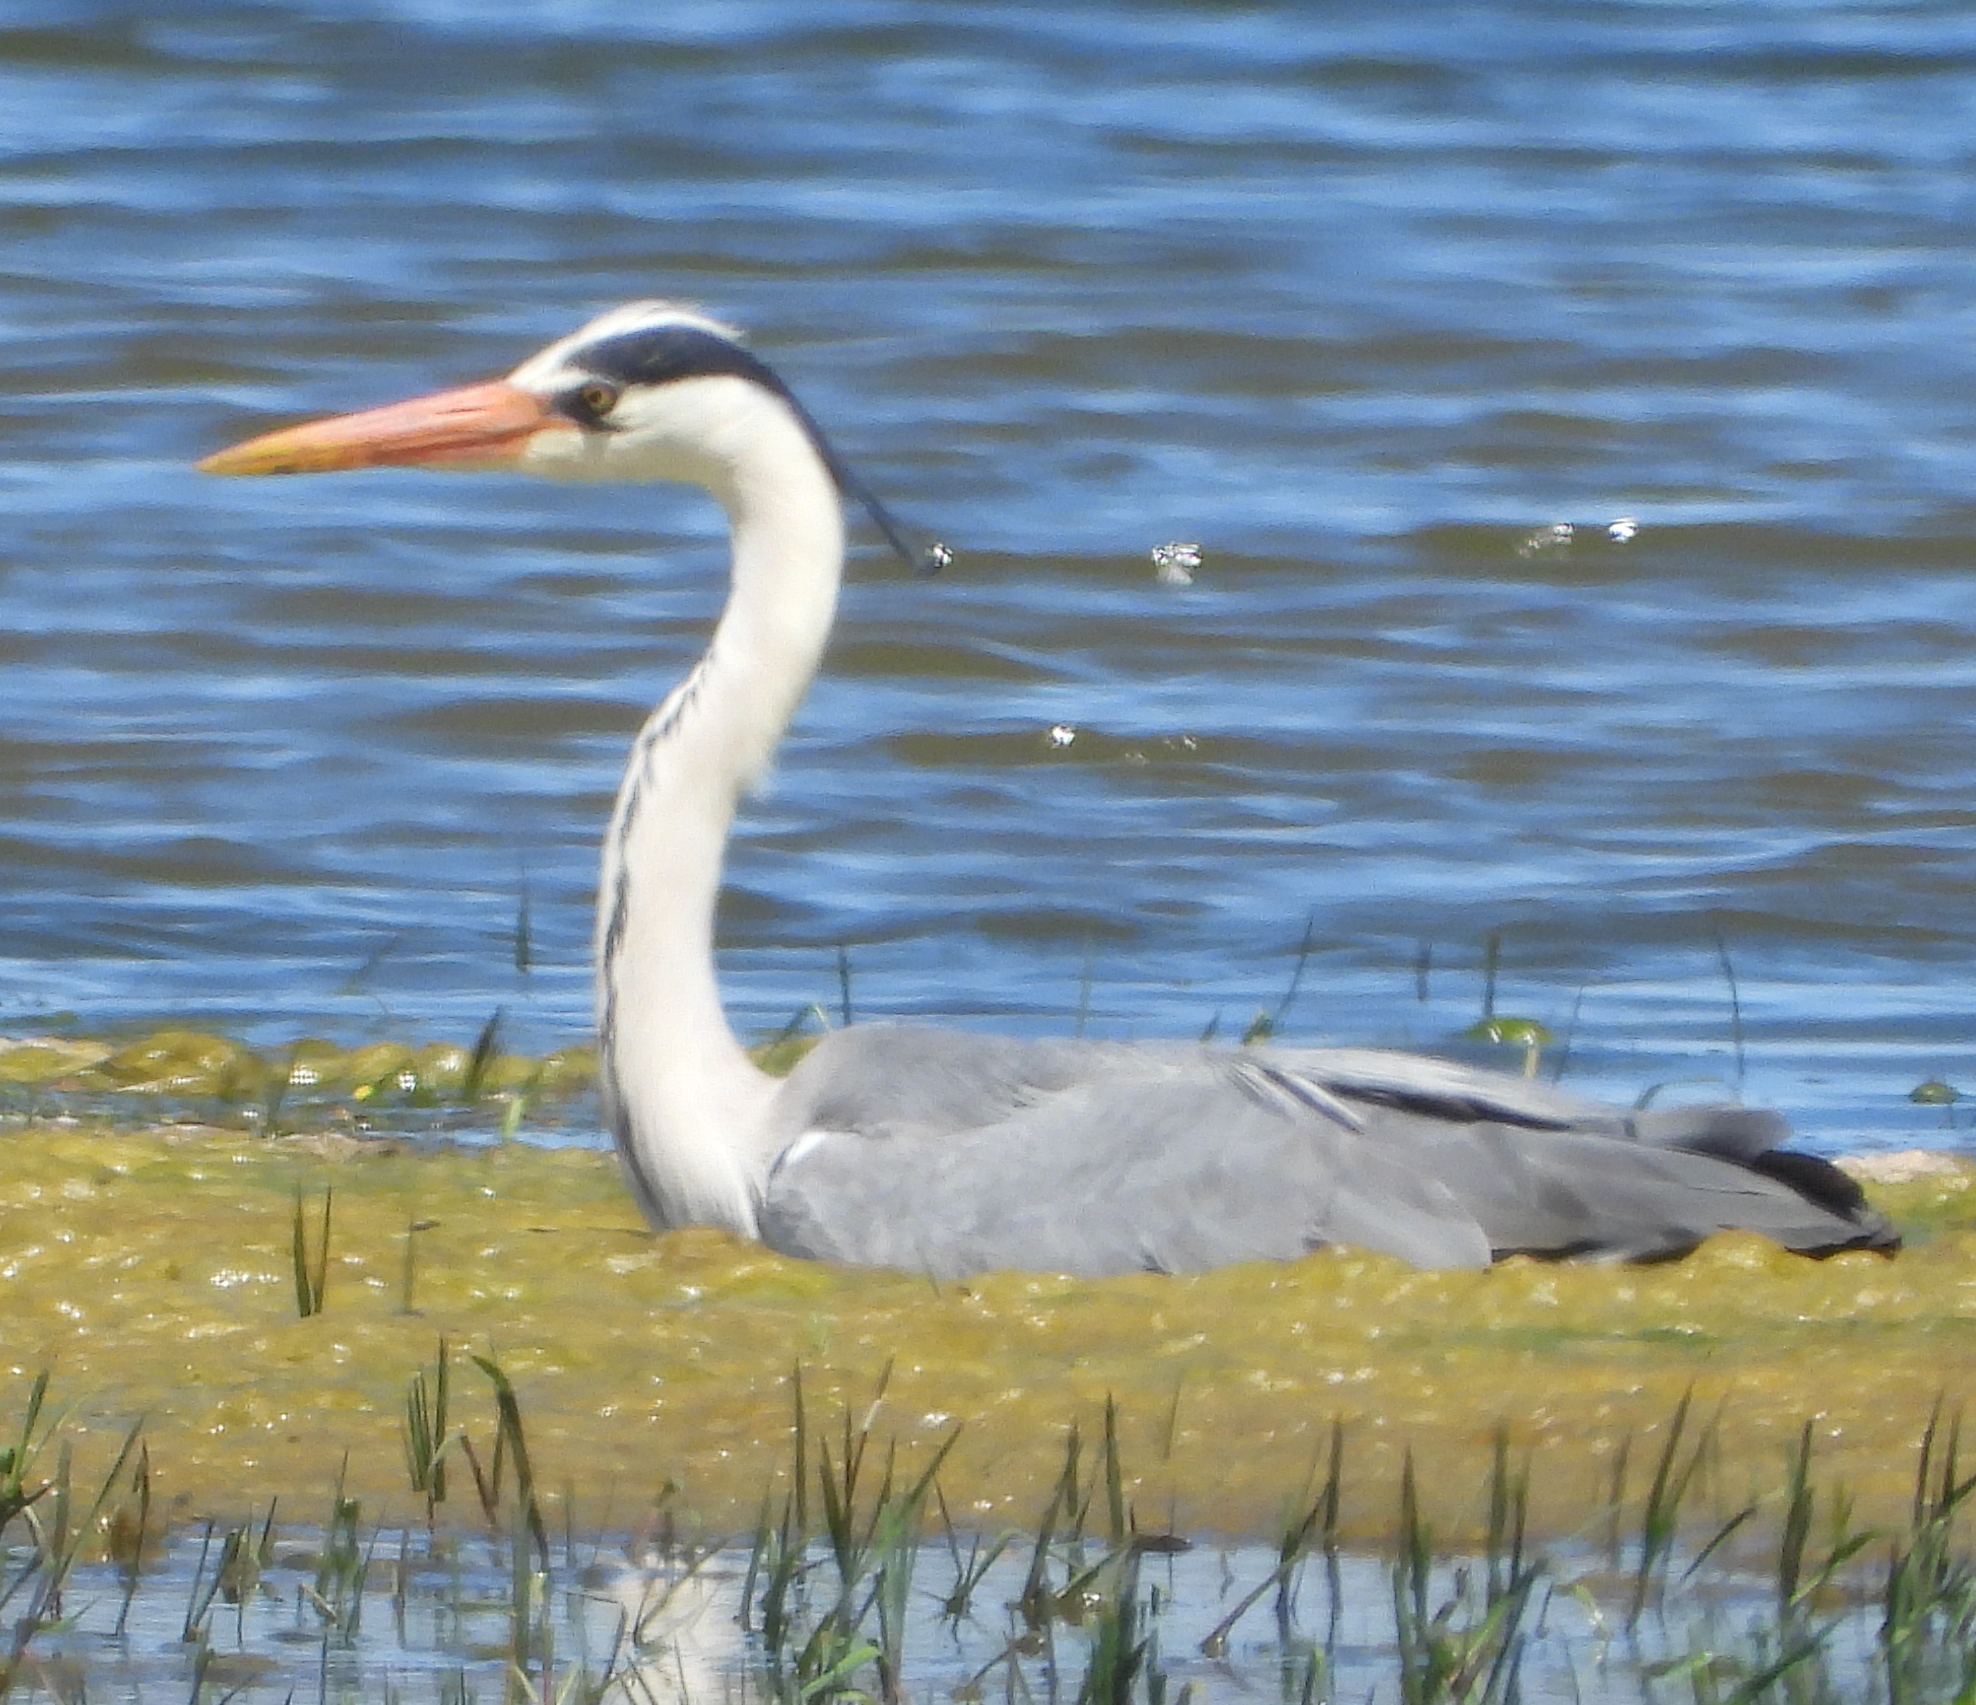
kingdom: Animalia
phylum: Chordata
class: Aves
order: Pelecaniformes
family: Ardeidae
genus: Ardea
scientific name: Ardea cinerea
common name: Grey heron
